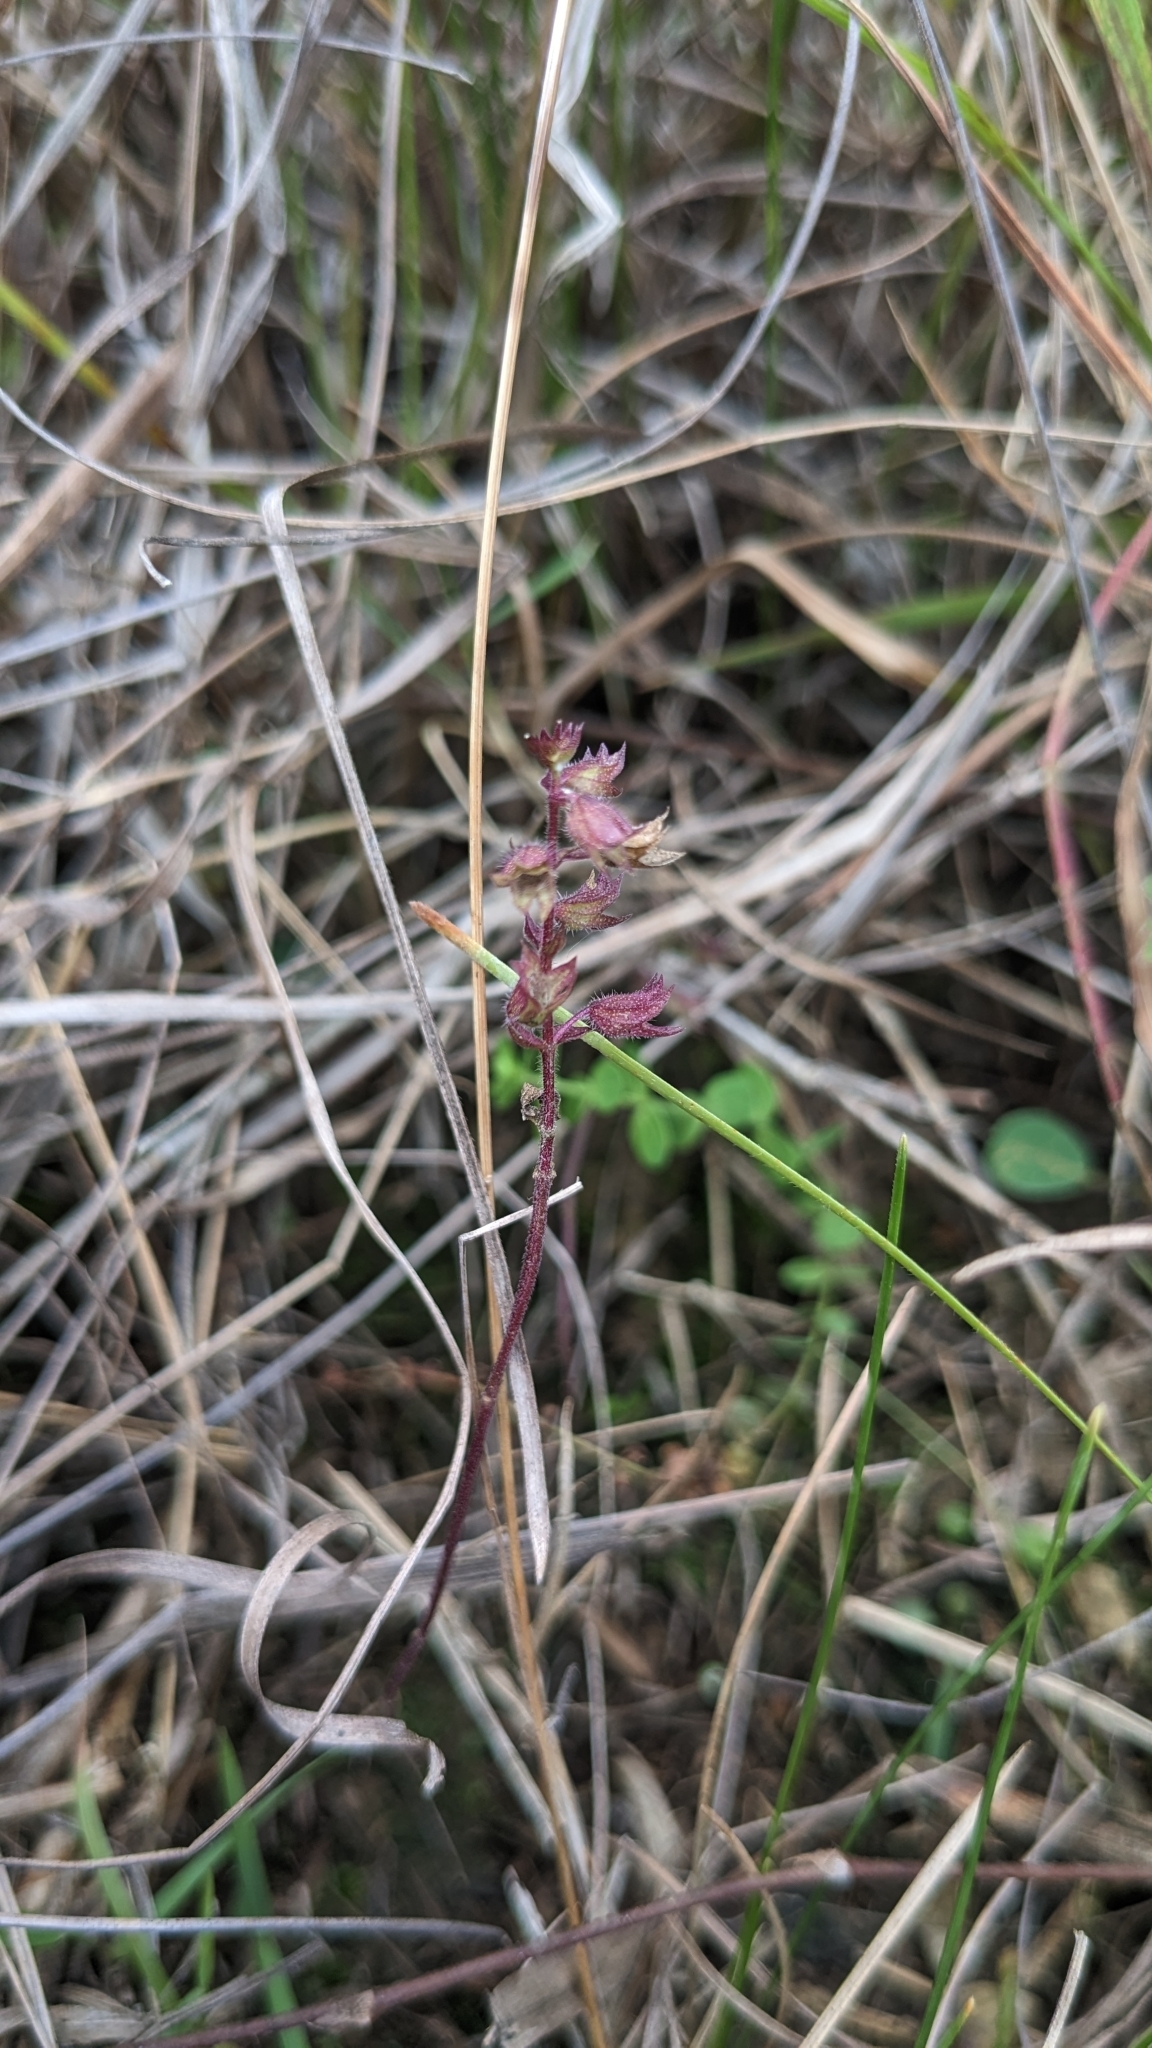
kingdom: Plantae
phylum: Tracheophyta
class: Magnoliopsida
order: Lamiales
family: Lamiaceae
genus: Mosla
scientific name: Mosla scabra
